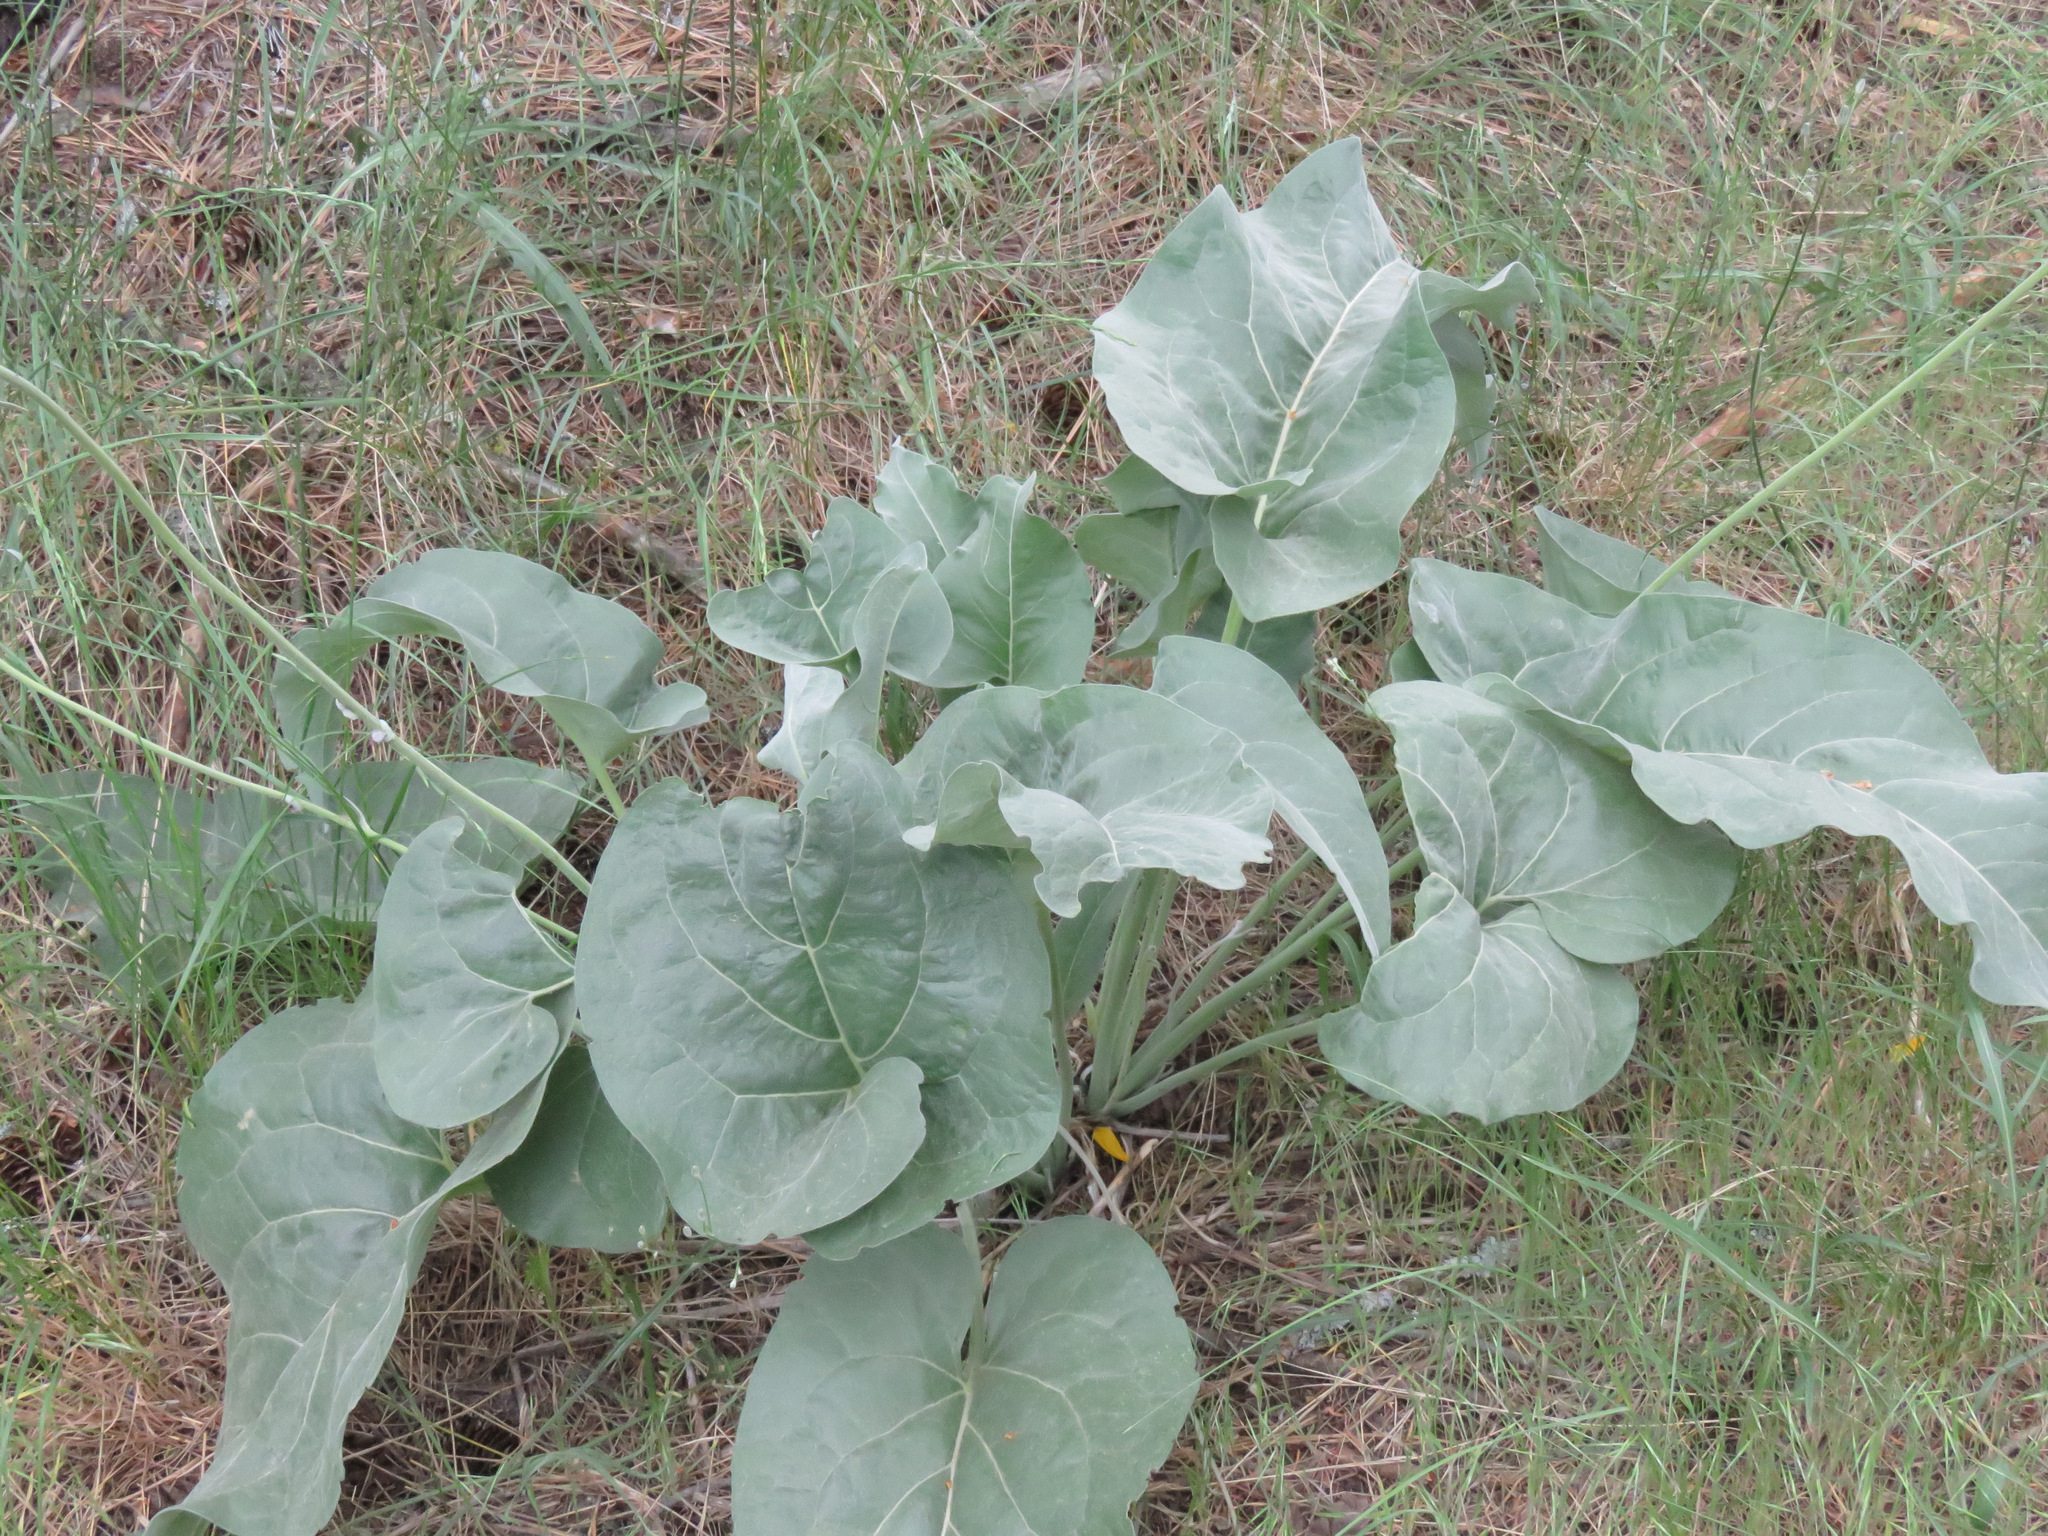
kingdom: Plantae
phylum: Tracheophyta
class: Magnoliopsida
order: Asterales
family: Asteraceae
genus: Wyethia
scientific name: Wyethia sagittata
